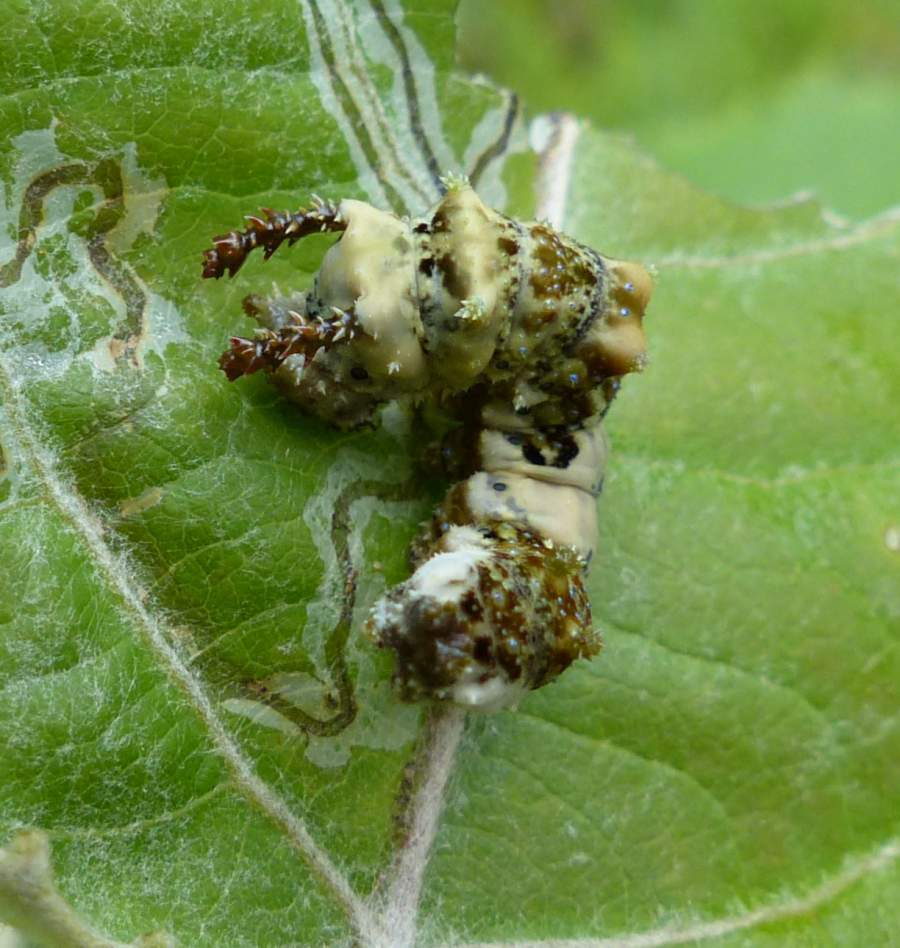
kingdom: Animalia
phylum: Arthropoda
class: Insecta
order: Lepidoptera
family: Nymphalidae
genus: Limenitis
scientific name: Limenitis
